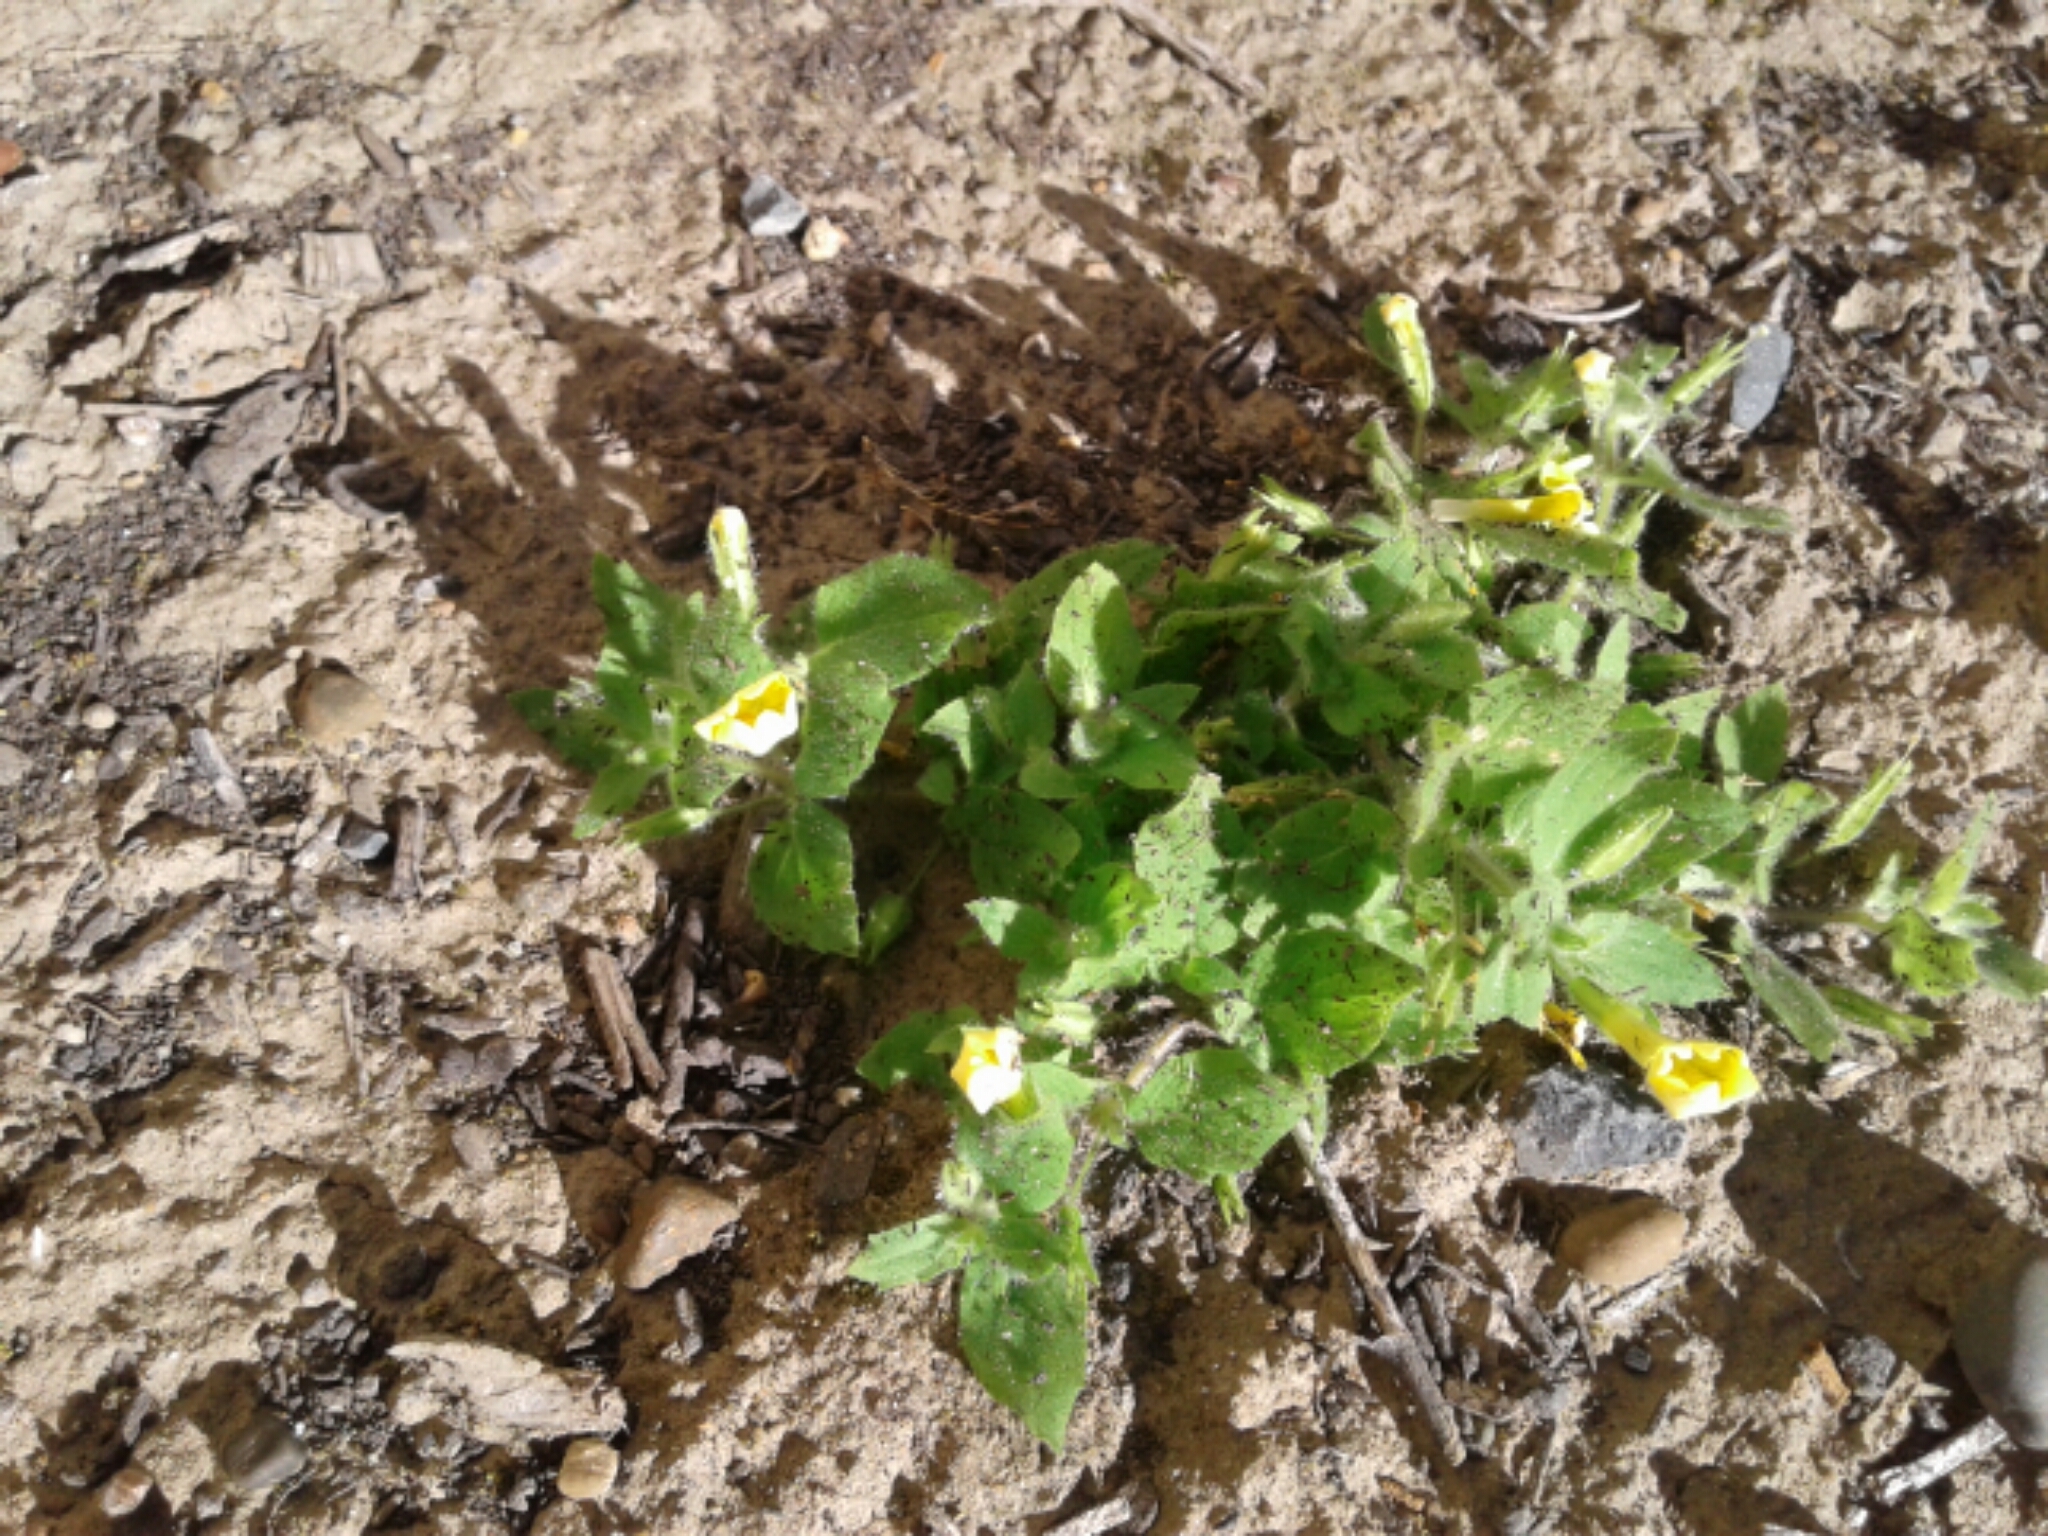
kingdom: Plantae
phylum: Tracheophyta
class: Magnoliopsida
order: Lamiales
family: Phrymaceae
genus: Erythranthe
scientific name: Erythranthe ptilota
